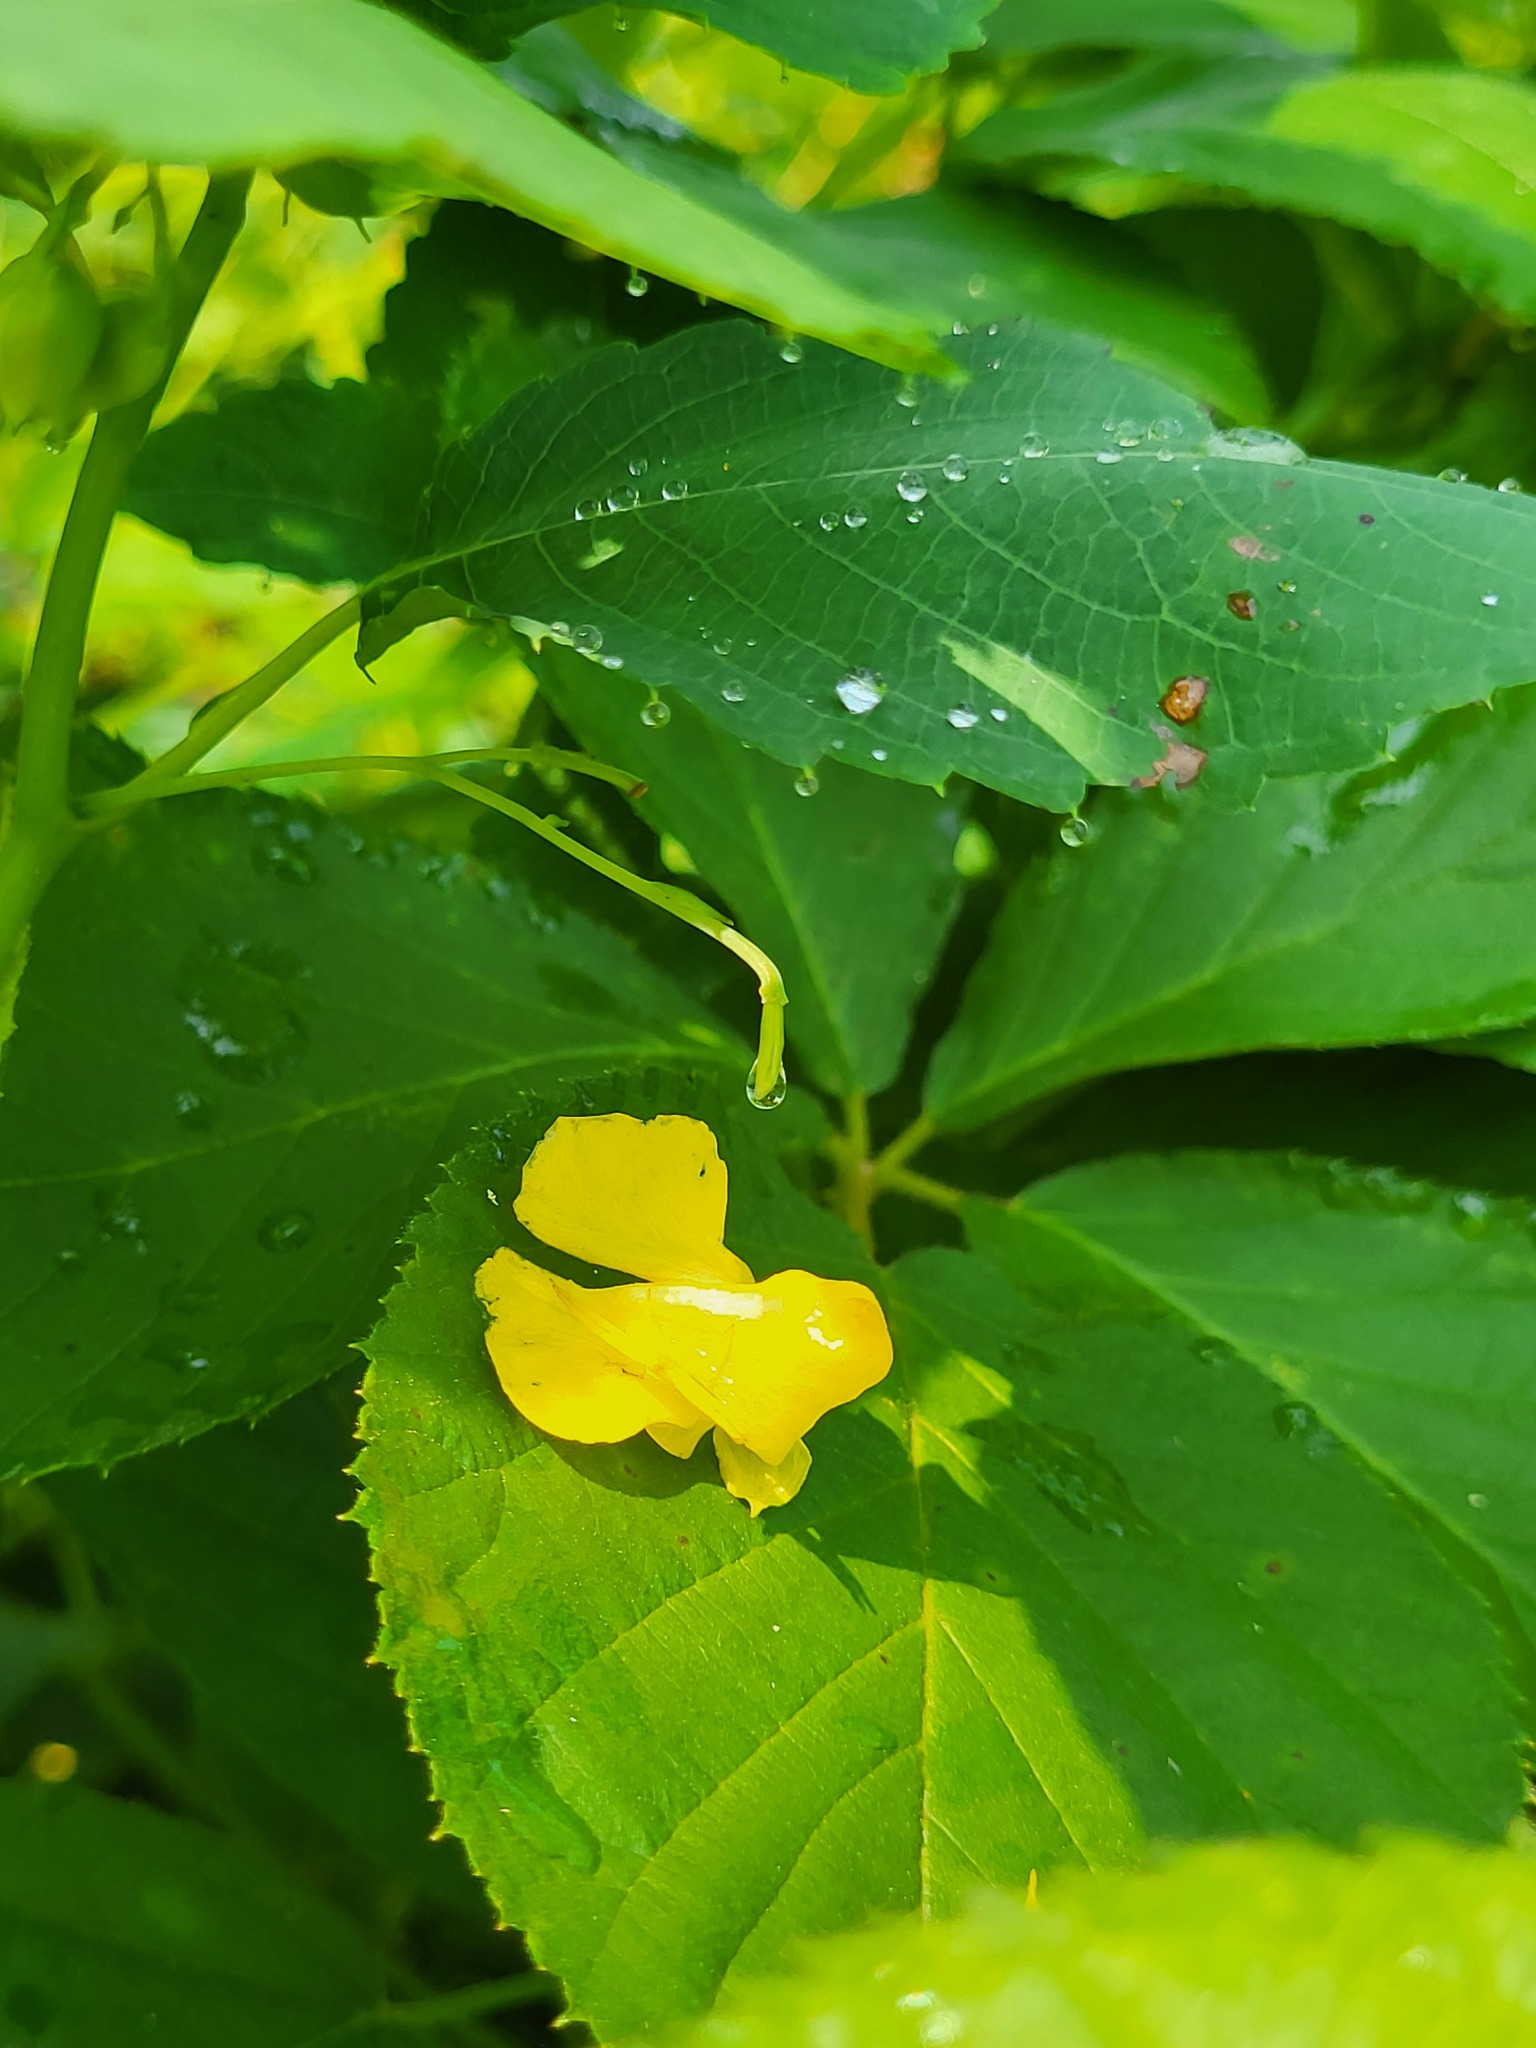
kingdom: Plantae
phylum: Tracheophyta
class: Magnoliopsida
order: Ericales
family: Balsaminaceae
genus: Impatiens
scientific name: Impatiens pallida
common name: Pale snapweed
